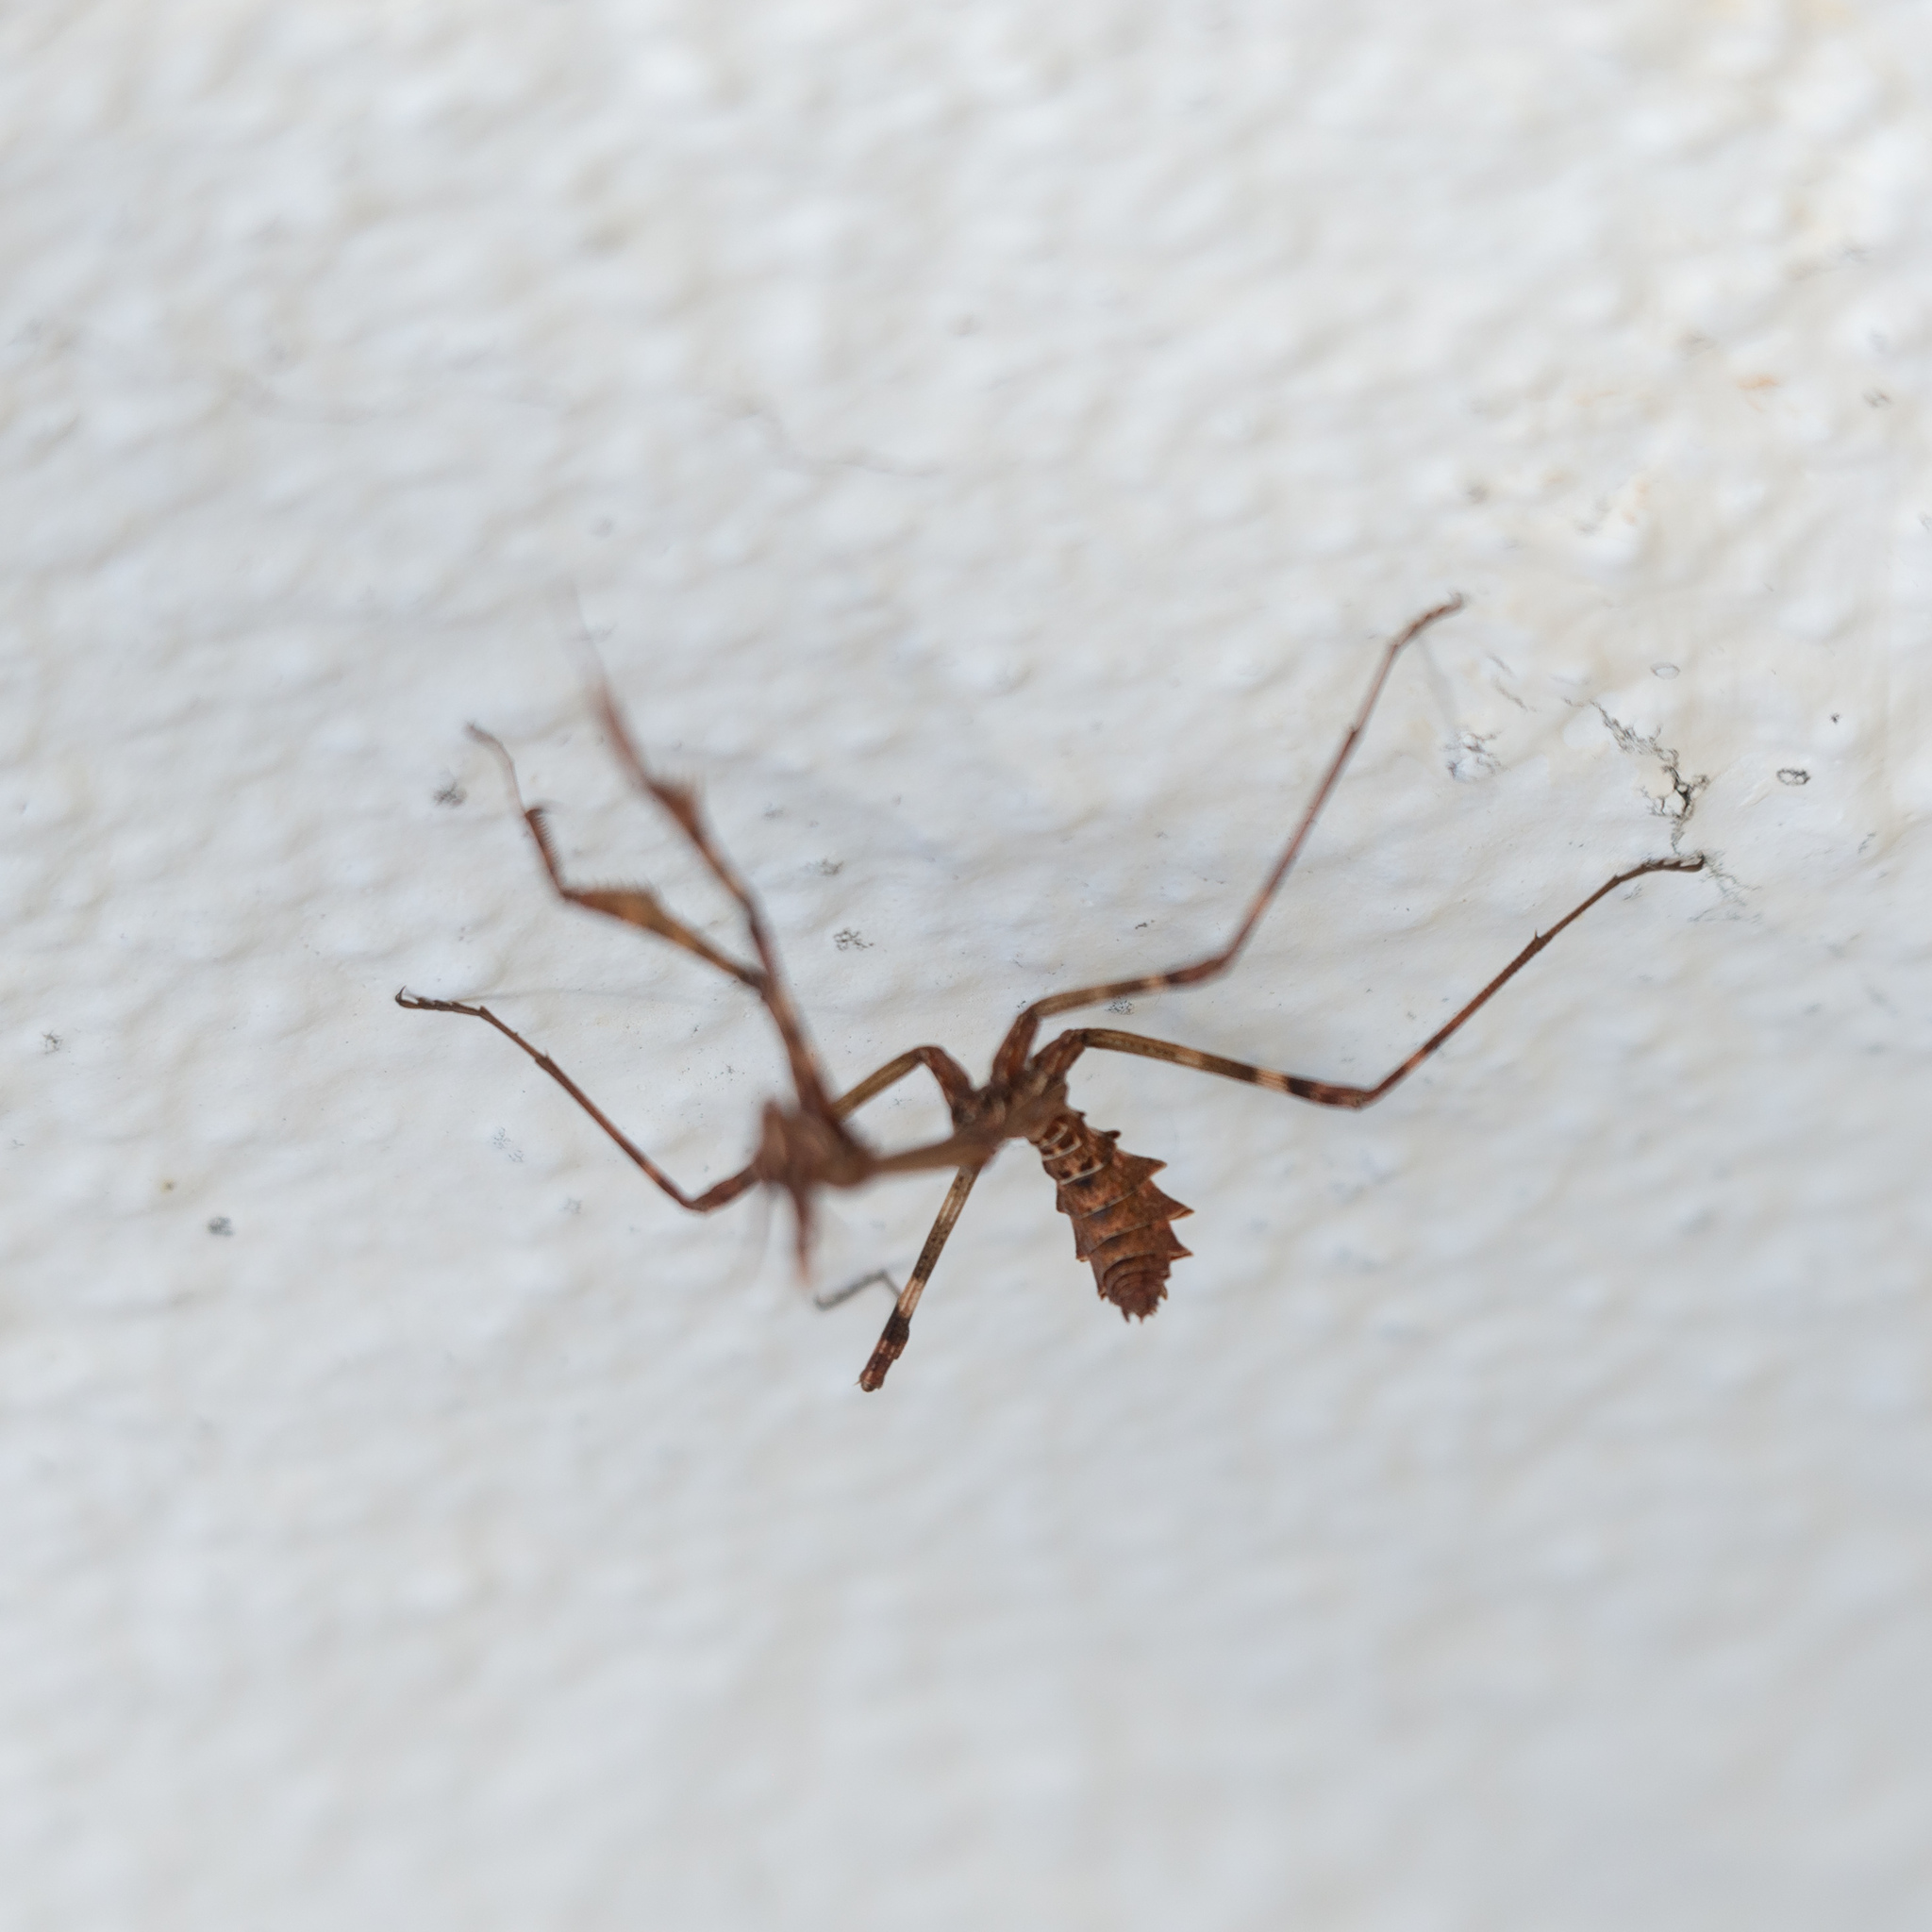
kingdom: Animalia
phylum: Arthropoda
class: Insecta
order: Mantodea
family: Empusidae
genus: Empusa
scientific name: Empusa pennata
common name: Conehead mantis
